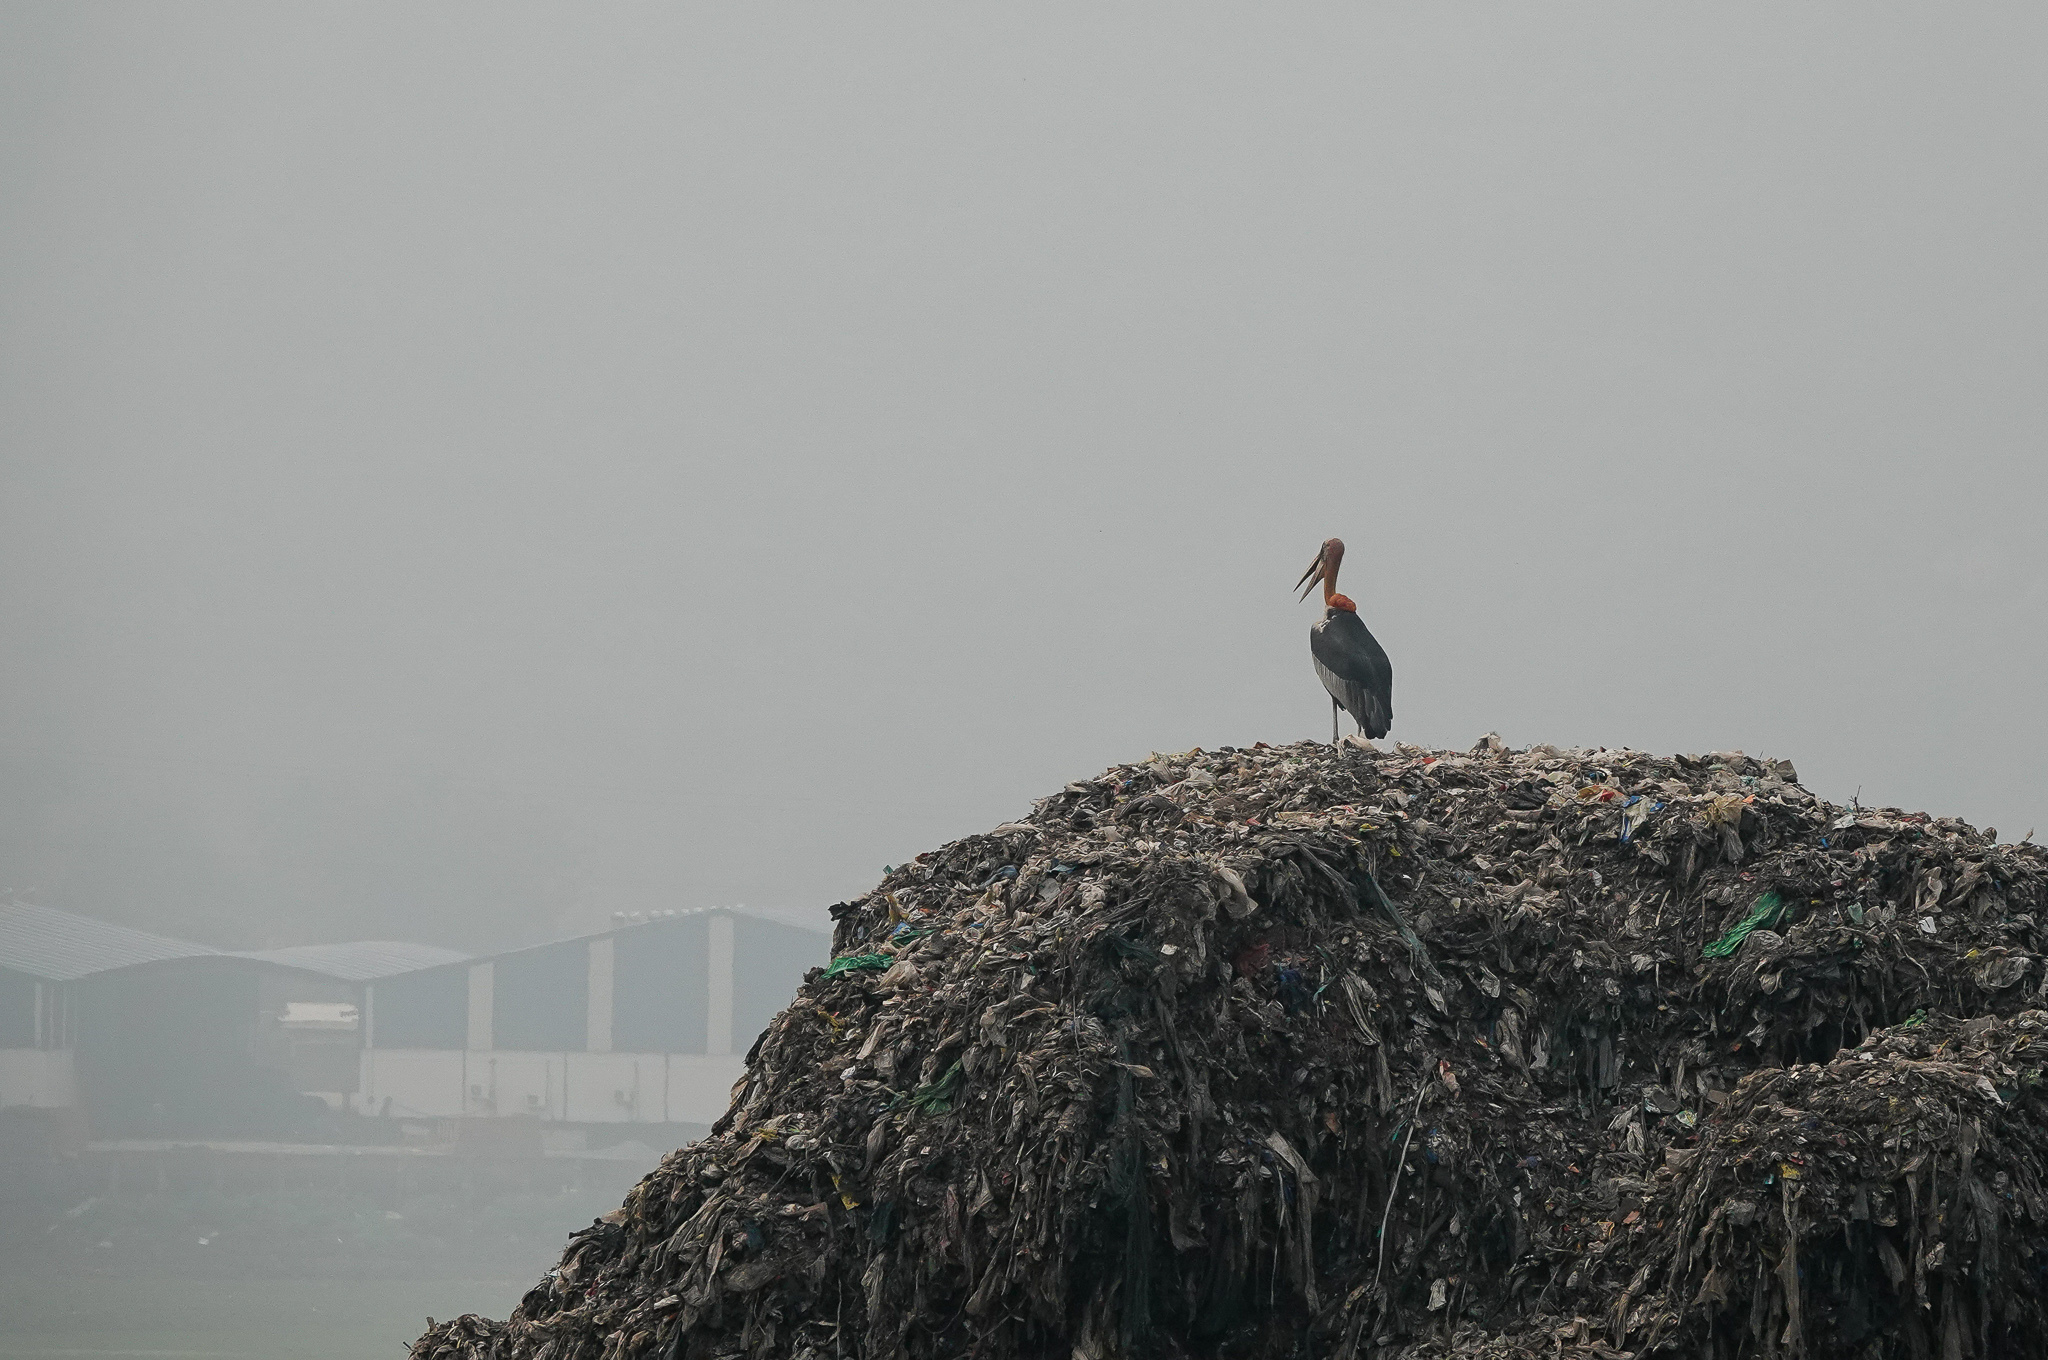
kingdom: Animalia
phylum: Chordata
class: Aves
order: Ciconiiformes
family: Ciconiidae
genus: Leptoptilos
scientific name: Leptoptilos dubius
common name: Greater adjutant
